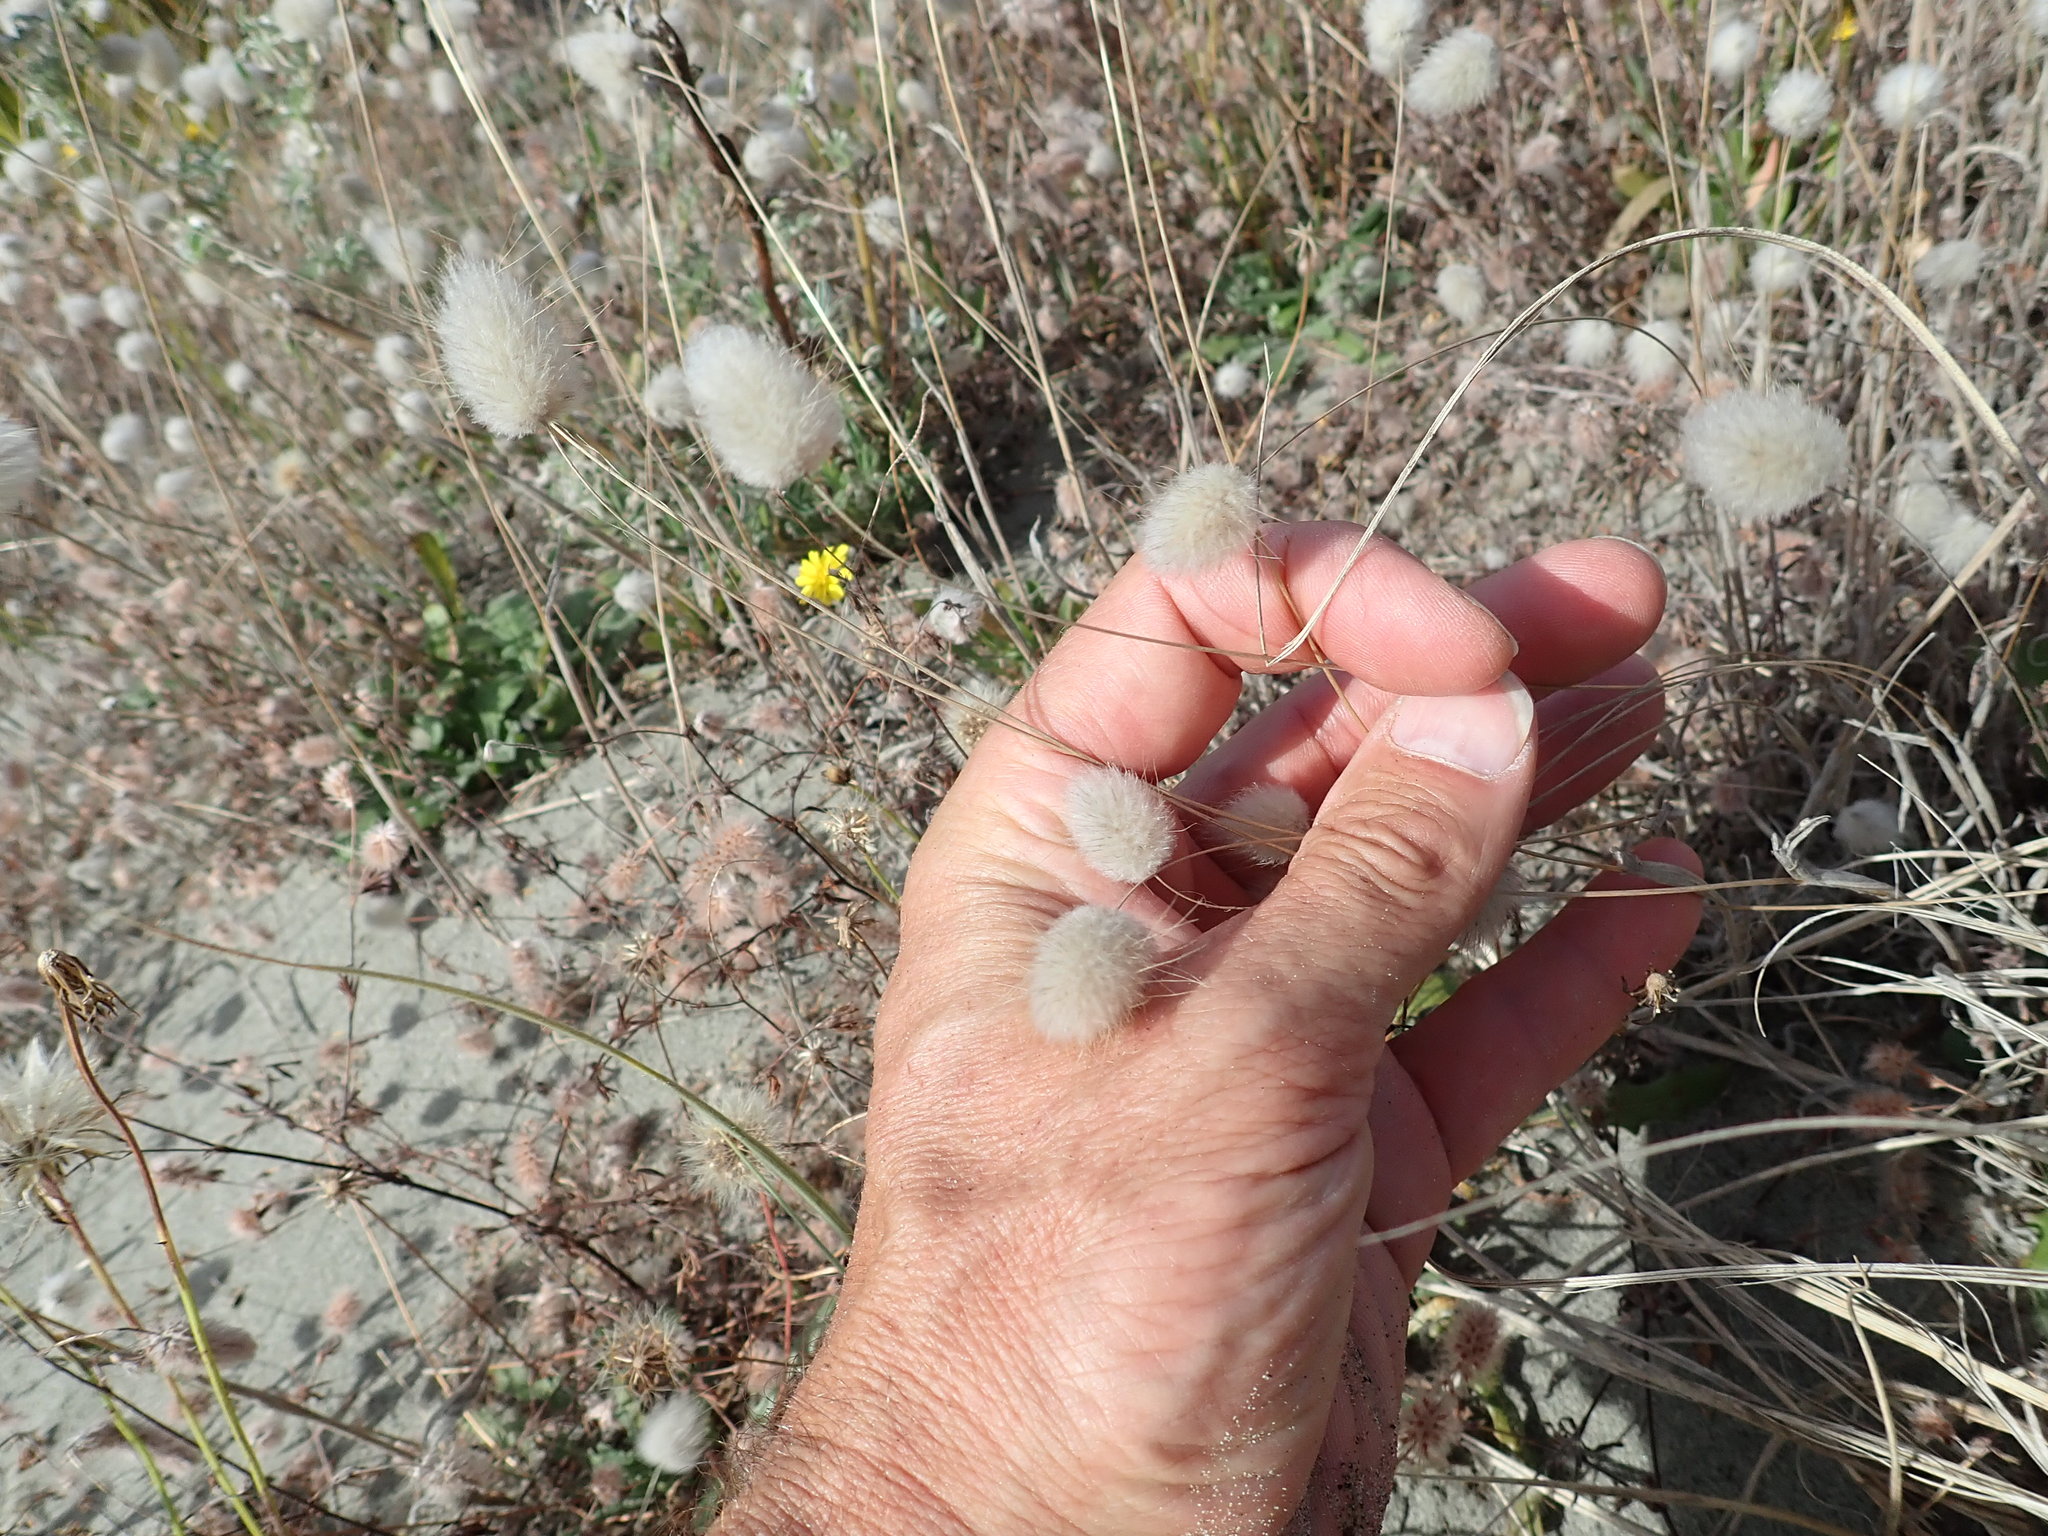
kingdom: Plantae
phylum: Tracheophyta
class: Liliopsida
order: Poales
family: Poaceae
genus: Lagurus
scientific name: Lagurus ovatus
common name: Hare's-tail
